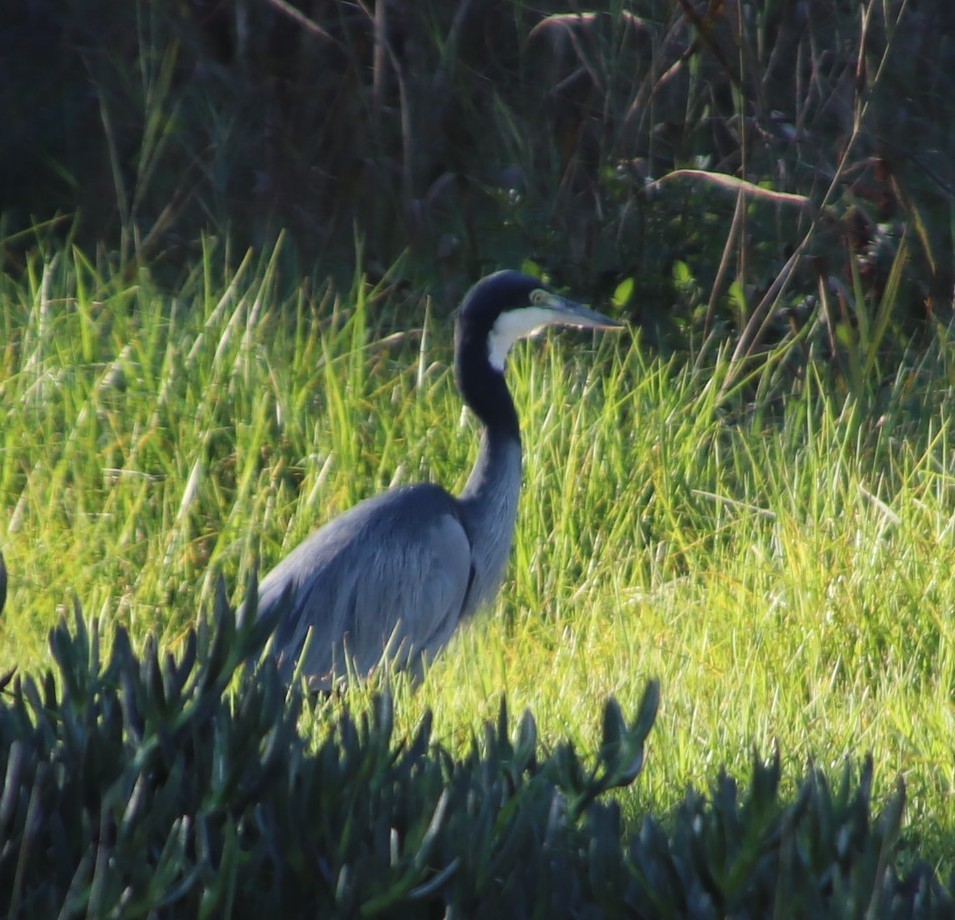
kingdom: Animalia
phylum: Chordata
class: Aves
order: Pelecaniformes
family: Ardeidae
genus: Ardea
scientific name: Ardea melanocephala
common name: Black-headed heron
